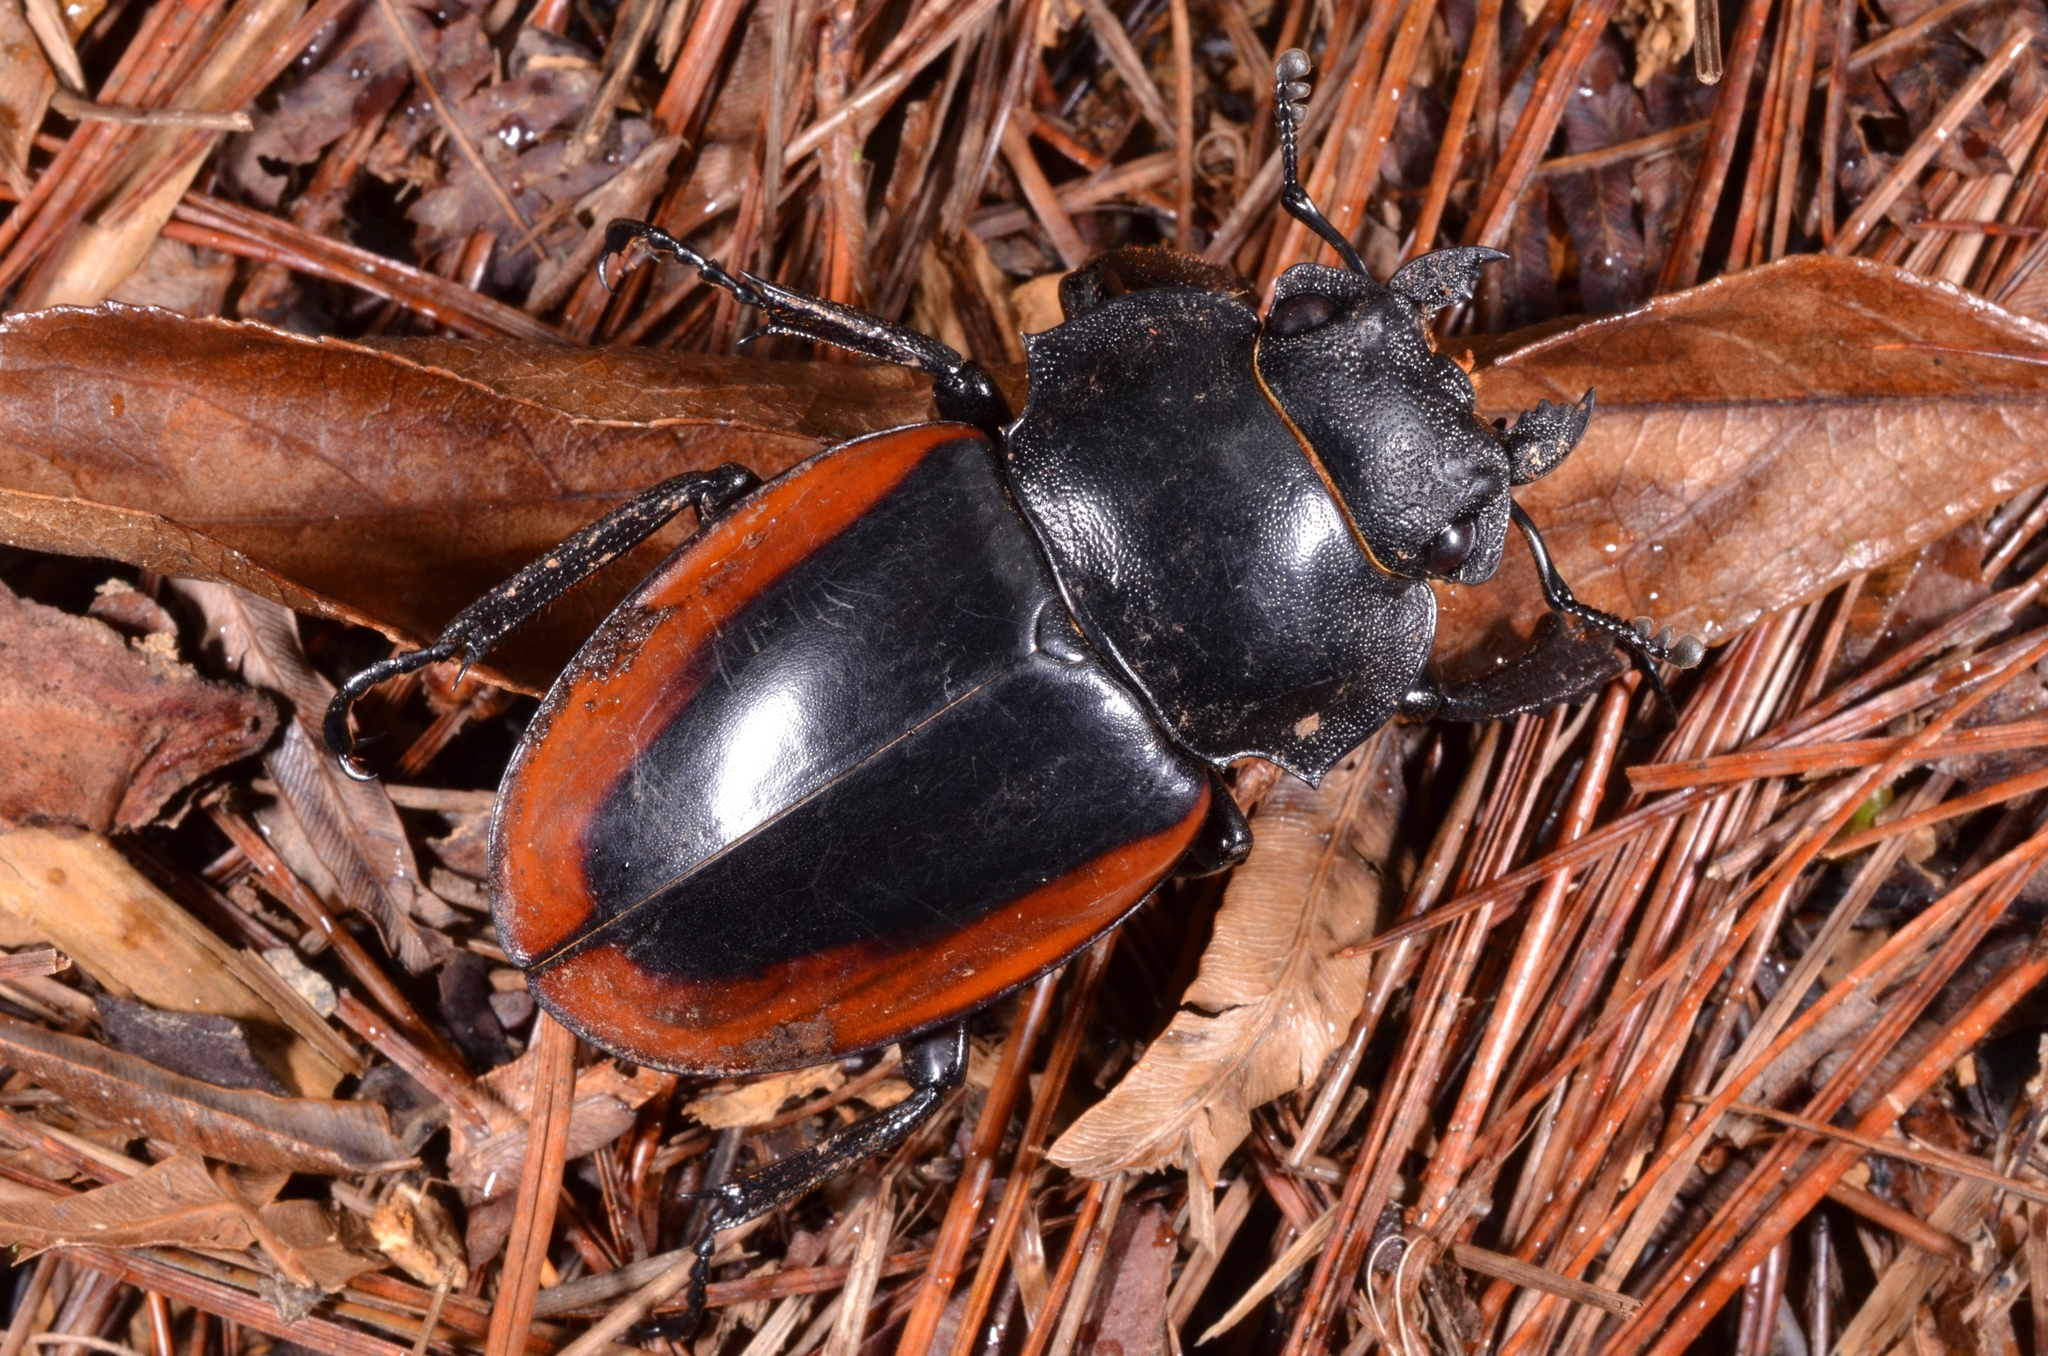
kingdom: Animalia
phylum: Arthropoda
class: Insecta
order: Coleoptera
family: Lucanidae
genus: Odontolabis
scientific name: Odontolabis cuvera
